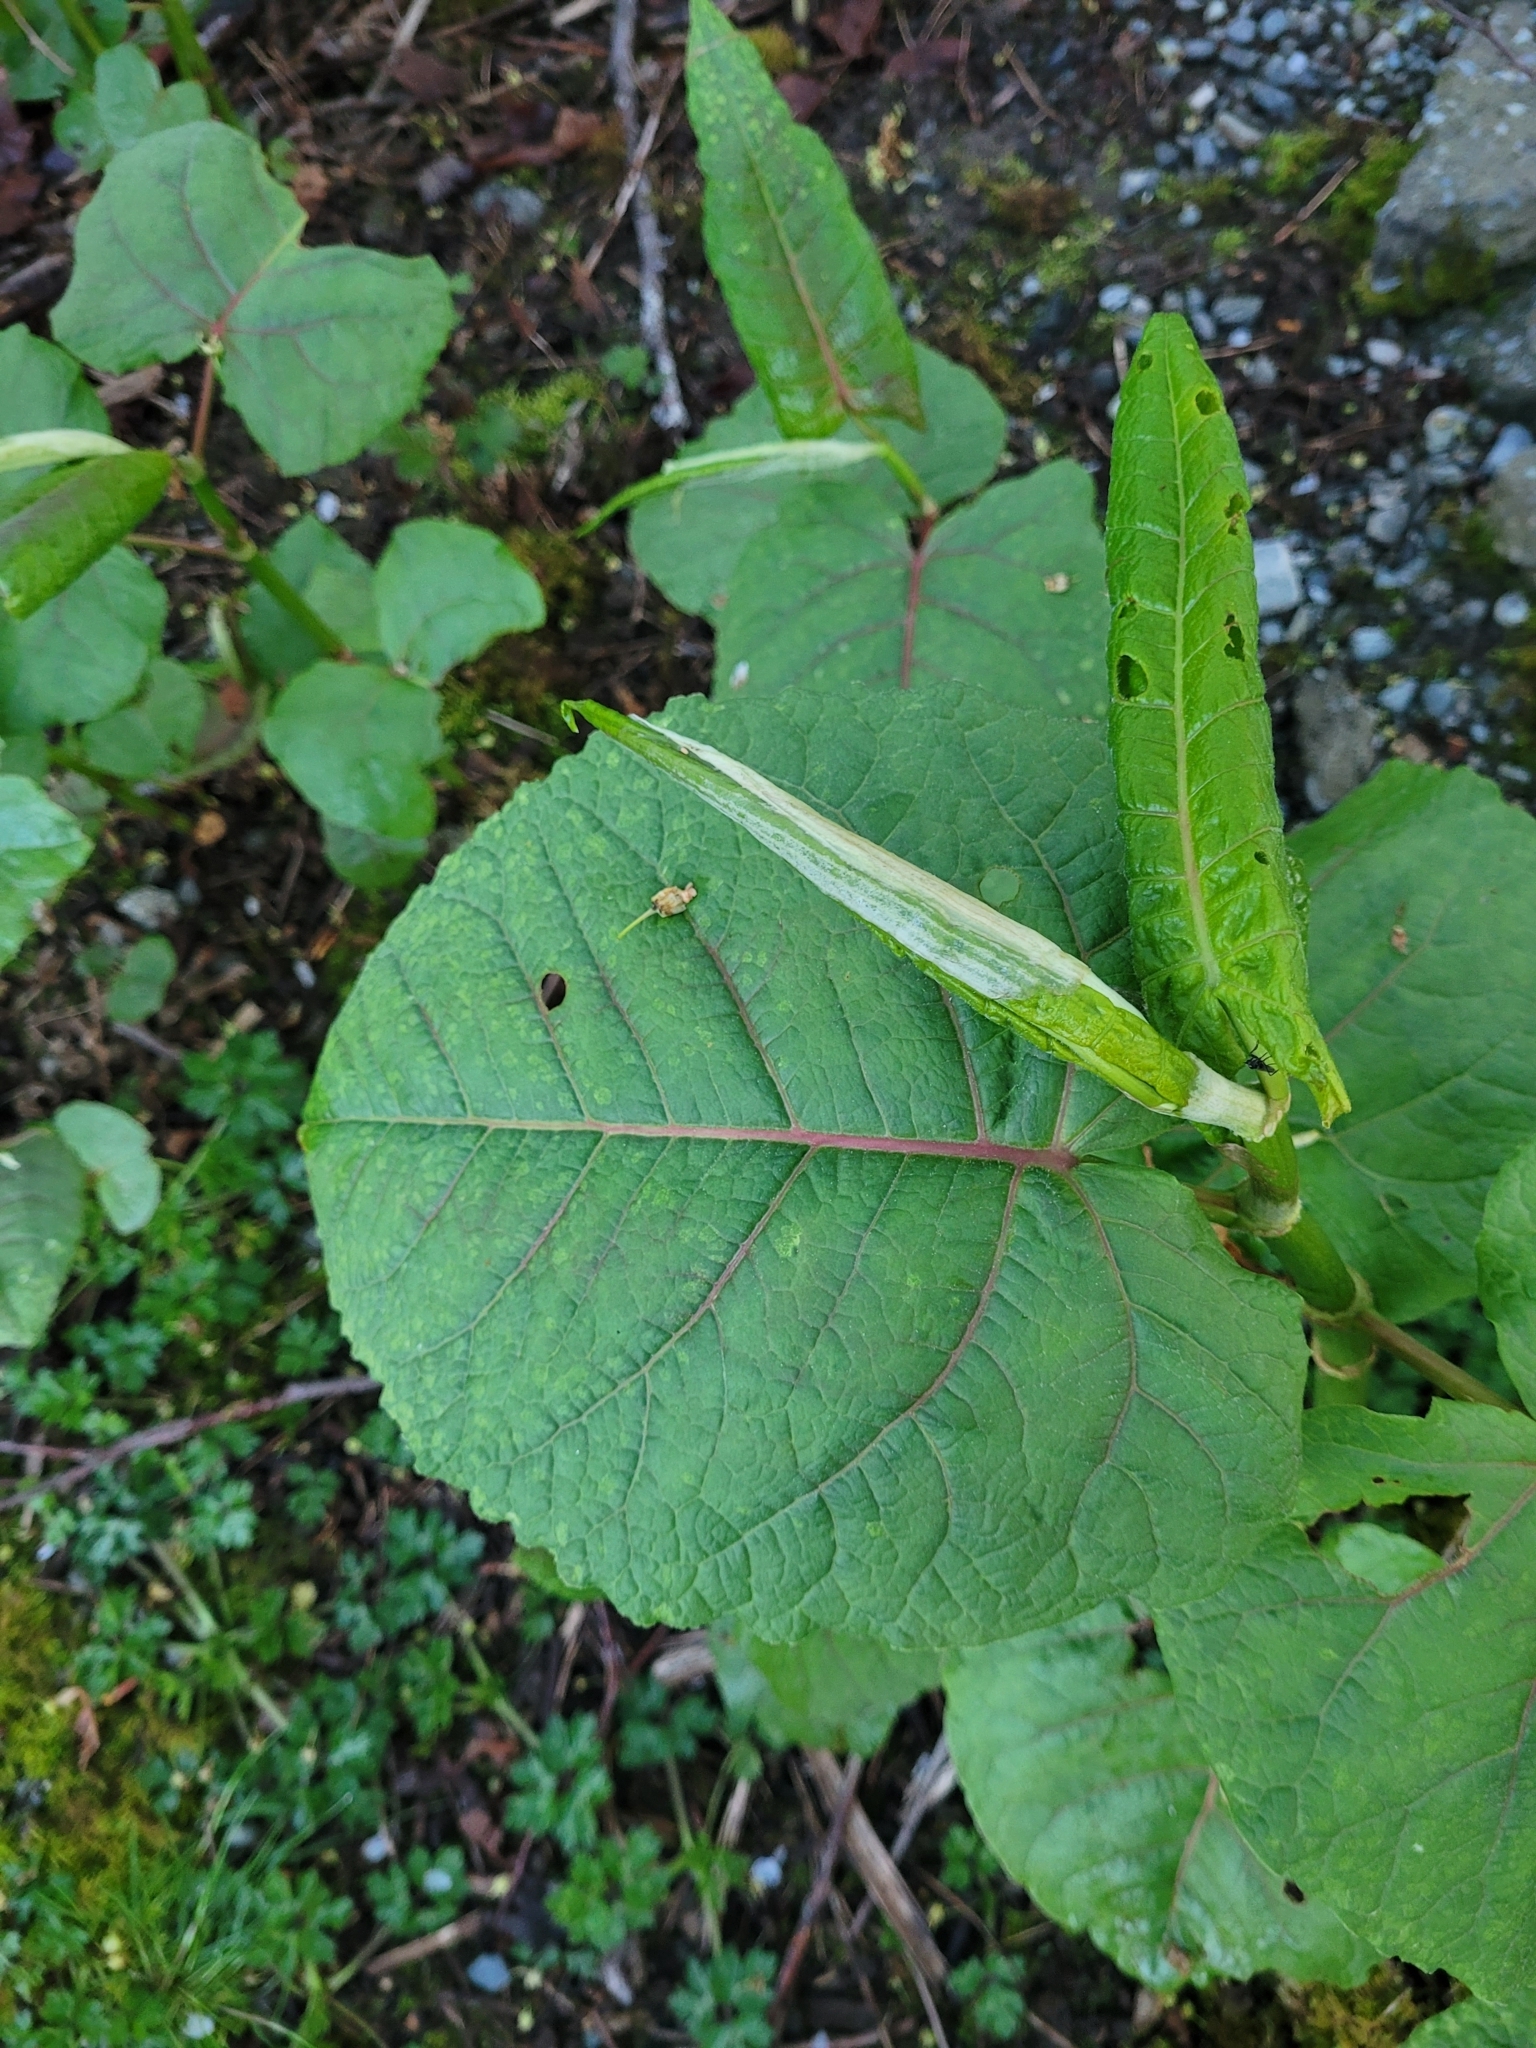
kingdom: Plantae
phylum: Tracheophyta
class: Magnoliopsida
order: Caryophyllales
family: Polygonaceae
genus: Reynoutria
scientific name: Reynoutria sachalinensis
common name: Giant knotweed
